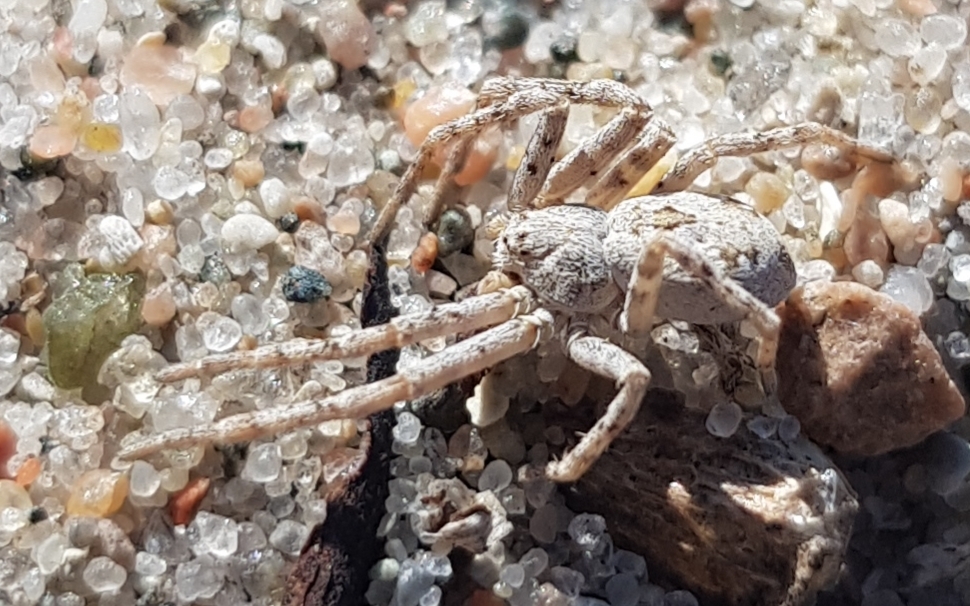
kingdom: Animalia
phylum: Arthropoda
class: Arachnida
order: Araneae
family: Philodromidae
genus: Rhysodromus
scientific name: Rhysodromus fallax
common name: Sand running-spider
